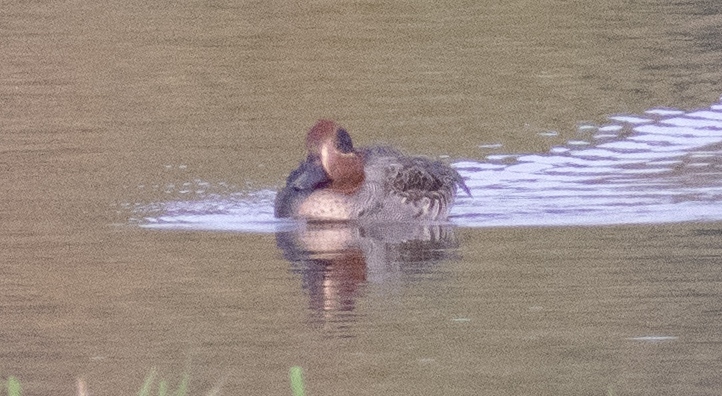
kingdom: Animalia
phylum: Chordata
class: Aves
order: Anseriformes
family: Anatidae
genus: Anas
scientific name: Anas crecca
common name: Eurasian teal
